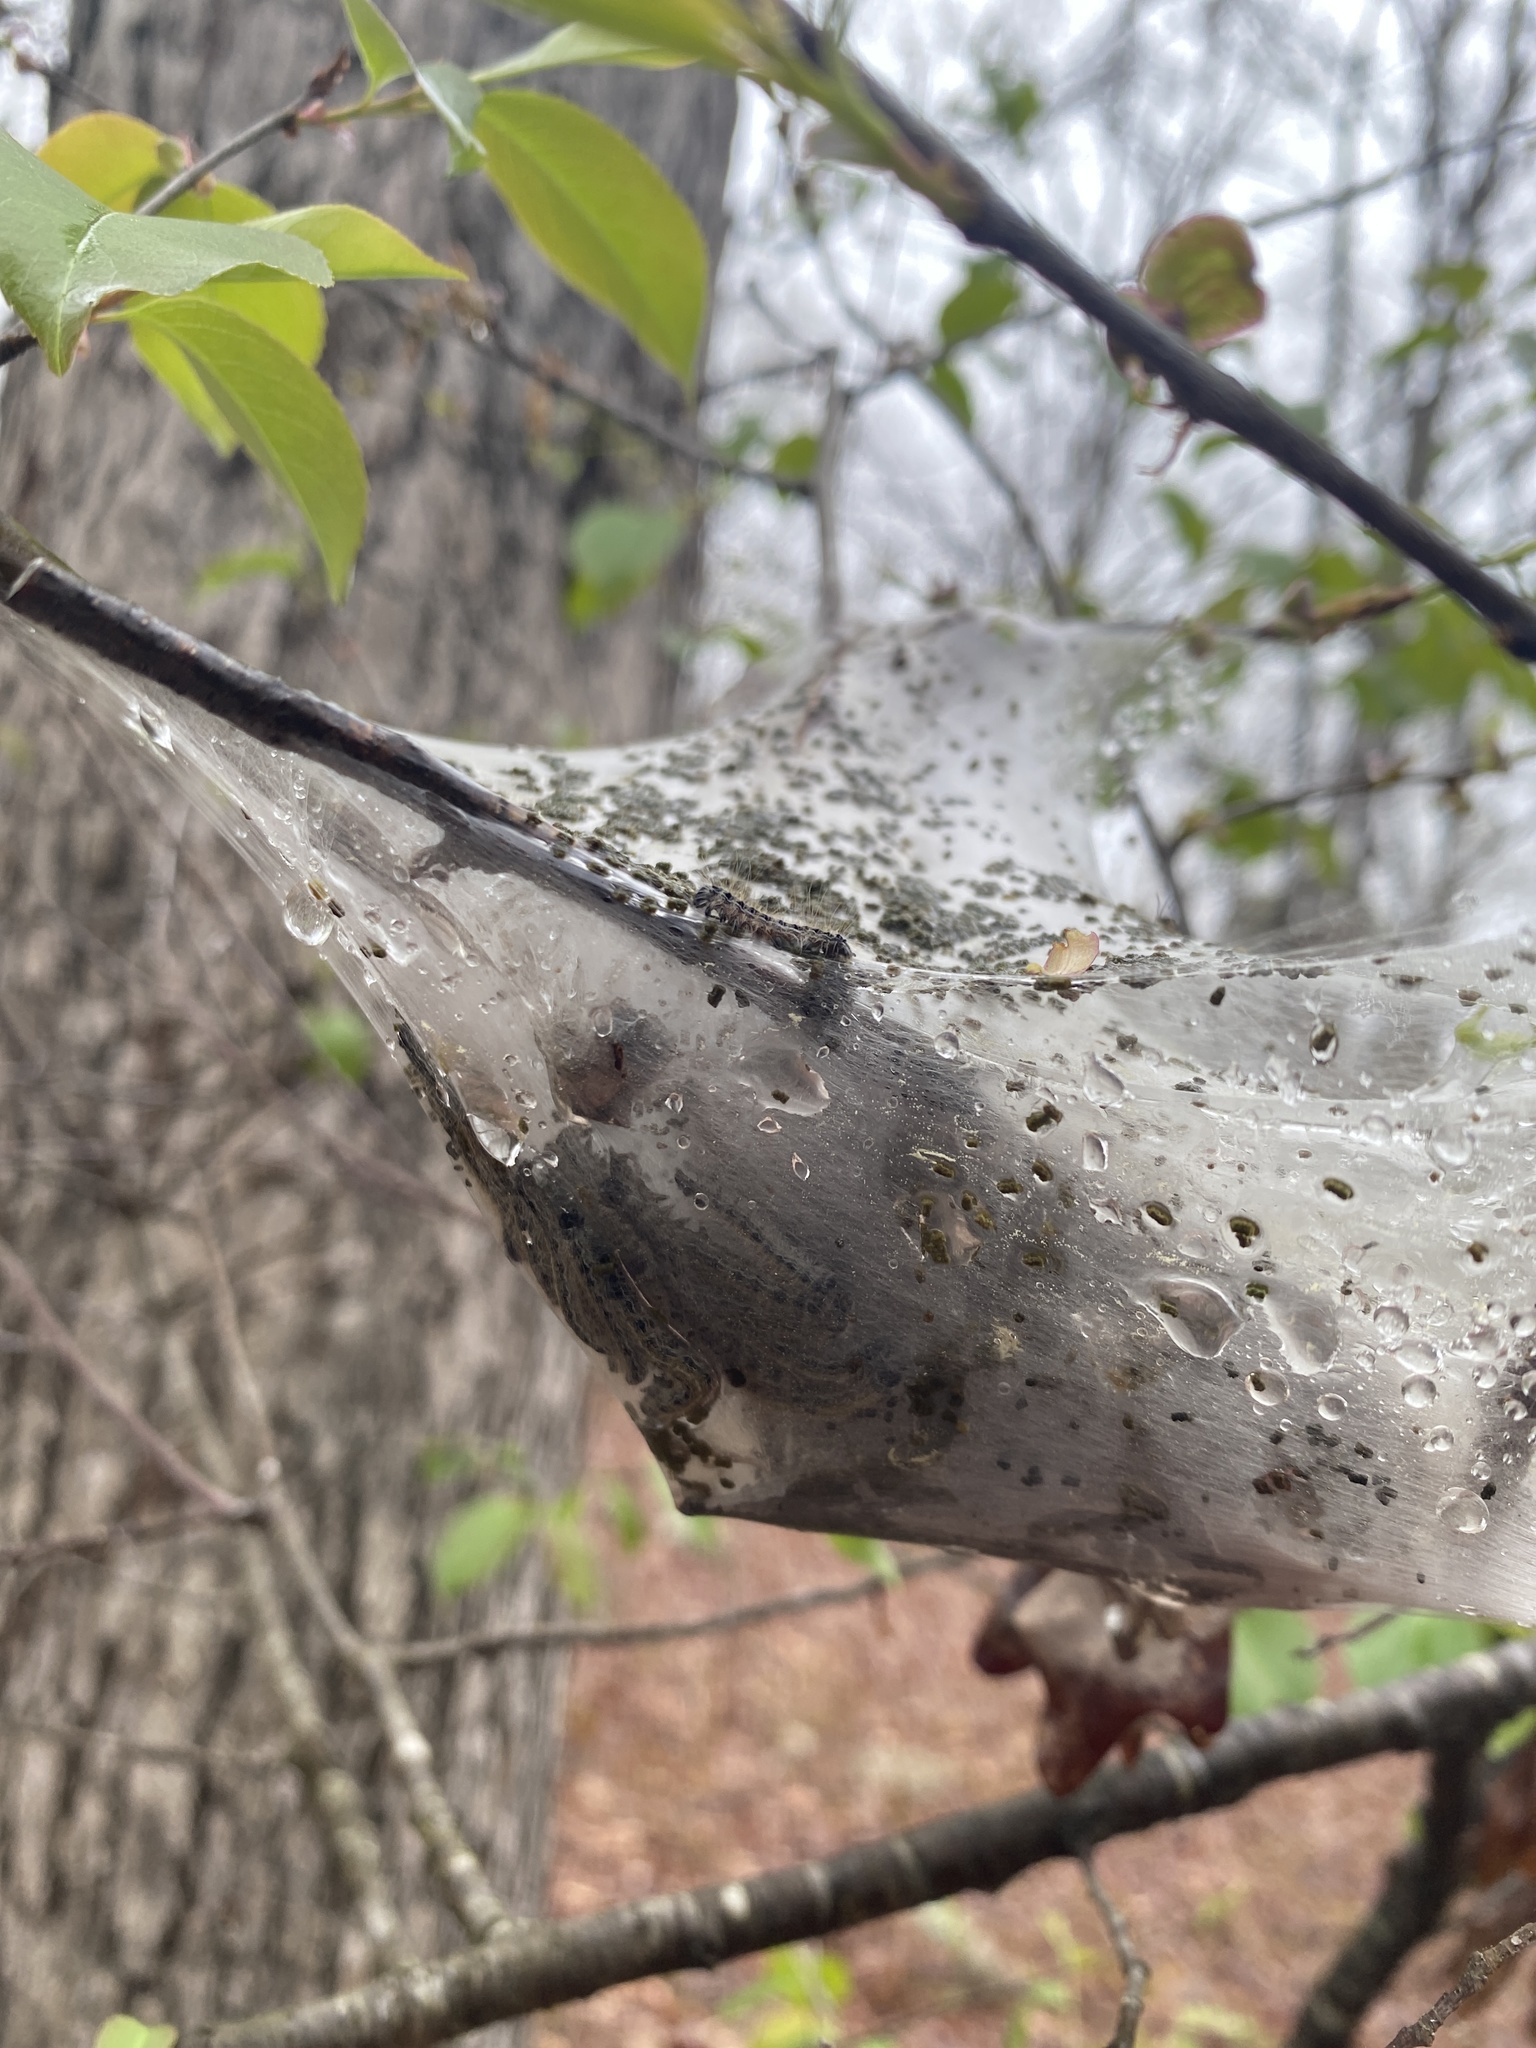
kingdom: Animalia
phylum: Arthropoda
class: Insecta
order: Lepidoptera
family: Lasiocampidae
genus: Malacosoma
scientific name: Malacosoma americana
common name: Eastern tent caterpillar moth
